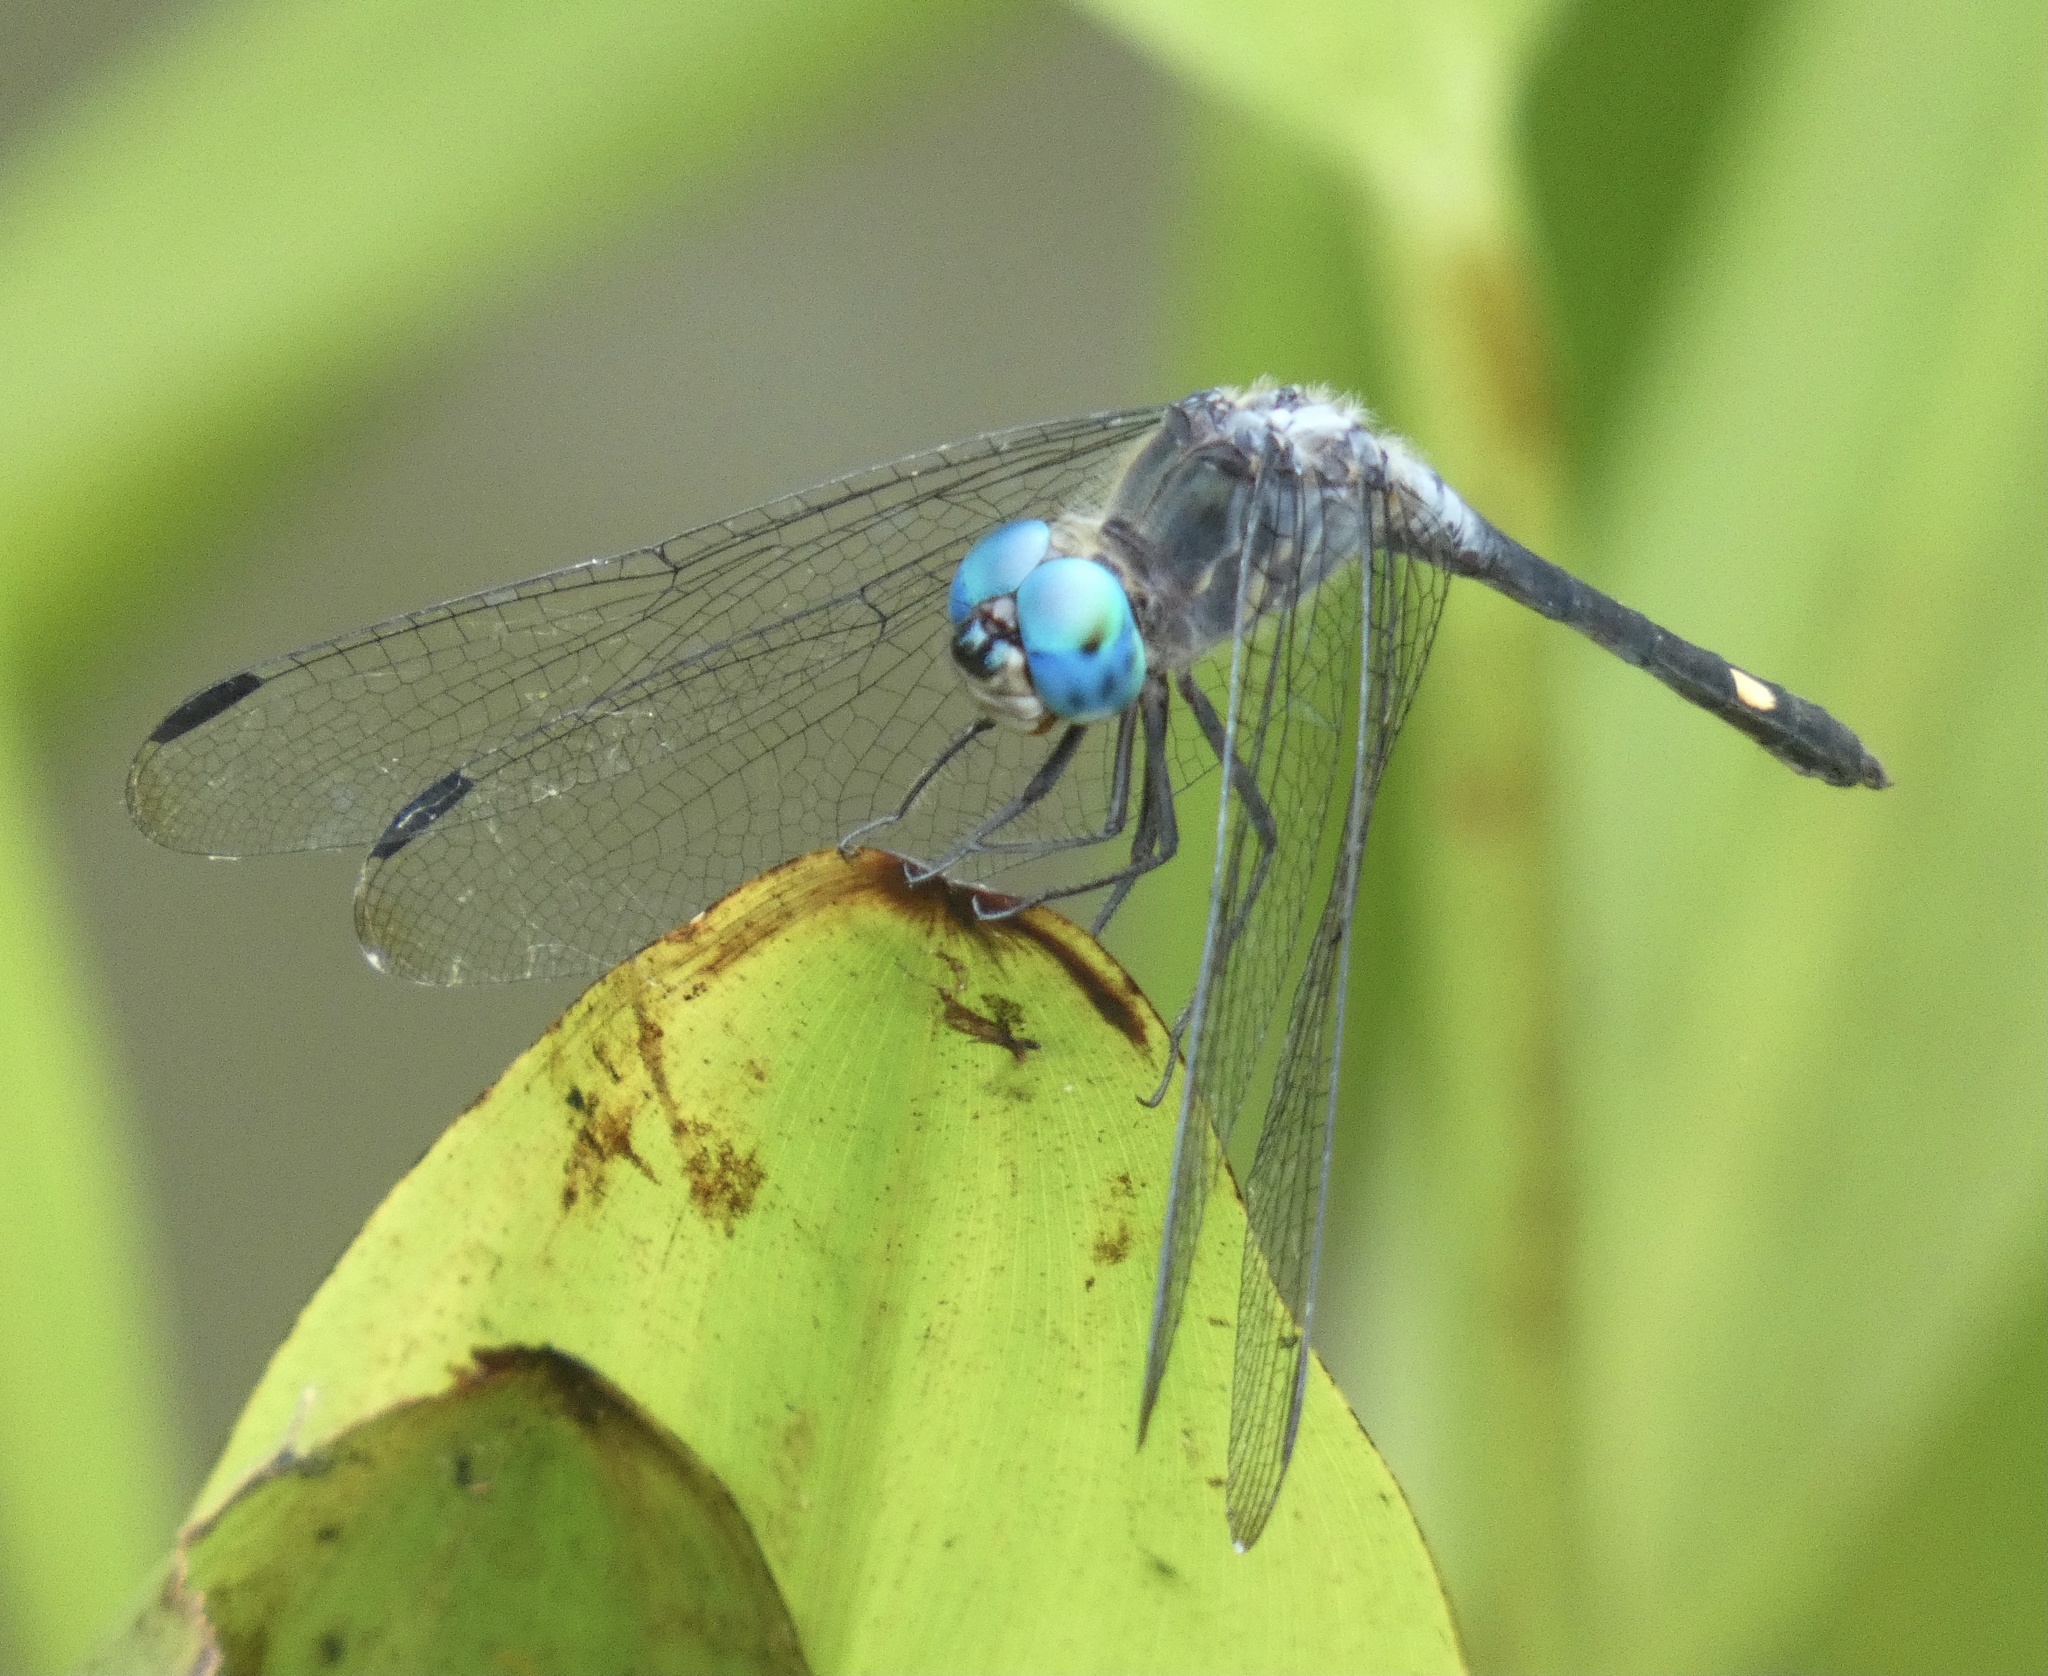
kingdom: Animalia
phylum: Arthropoda
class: Insecta
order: Odonata
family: Libellulidae
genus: Micrathyria
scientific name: Micrathyria atra
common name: Black dasher
